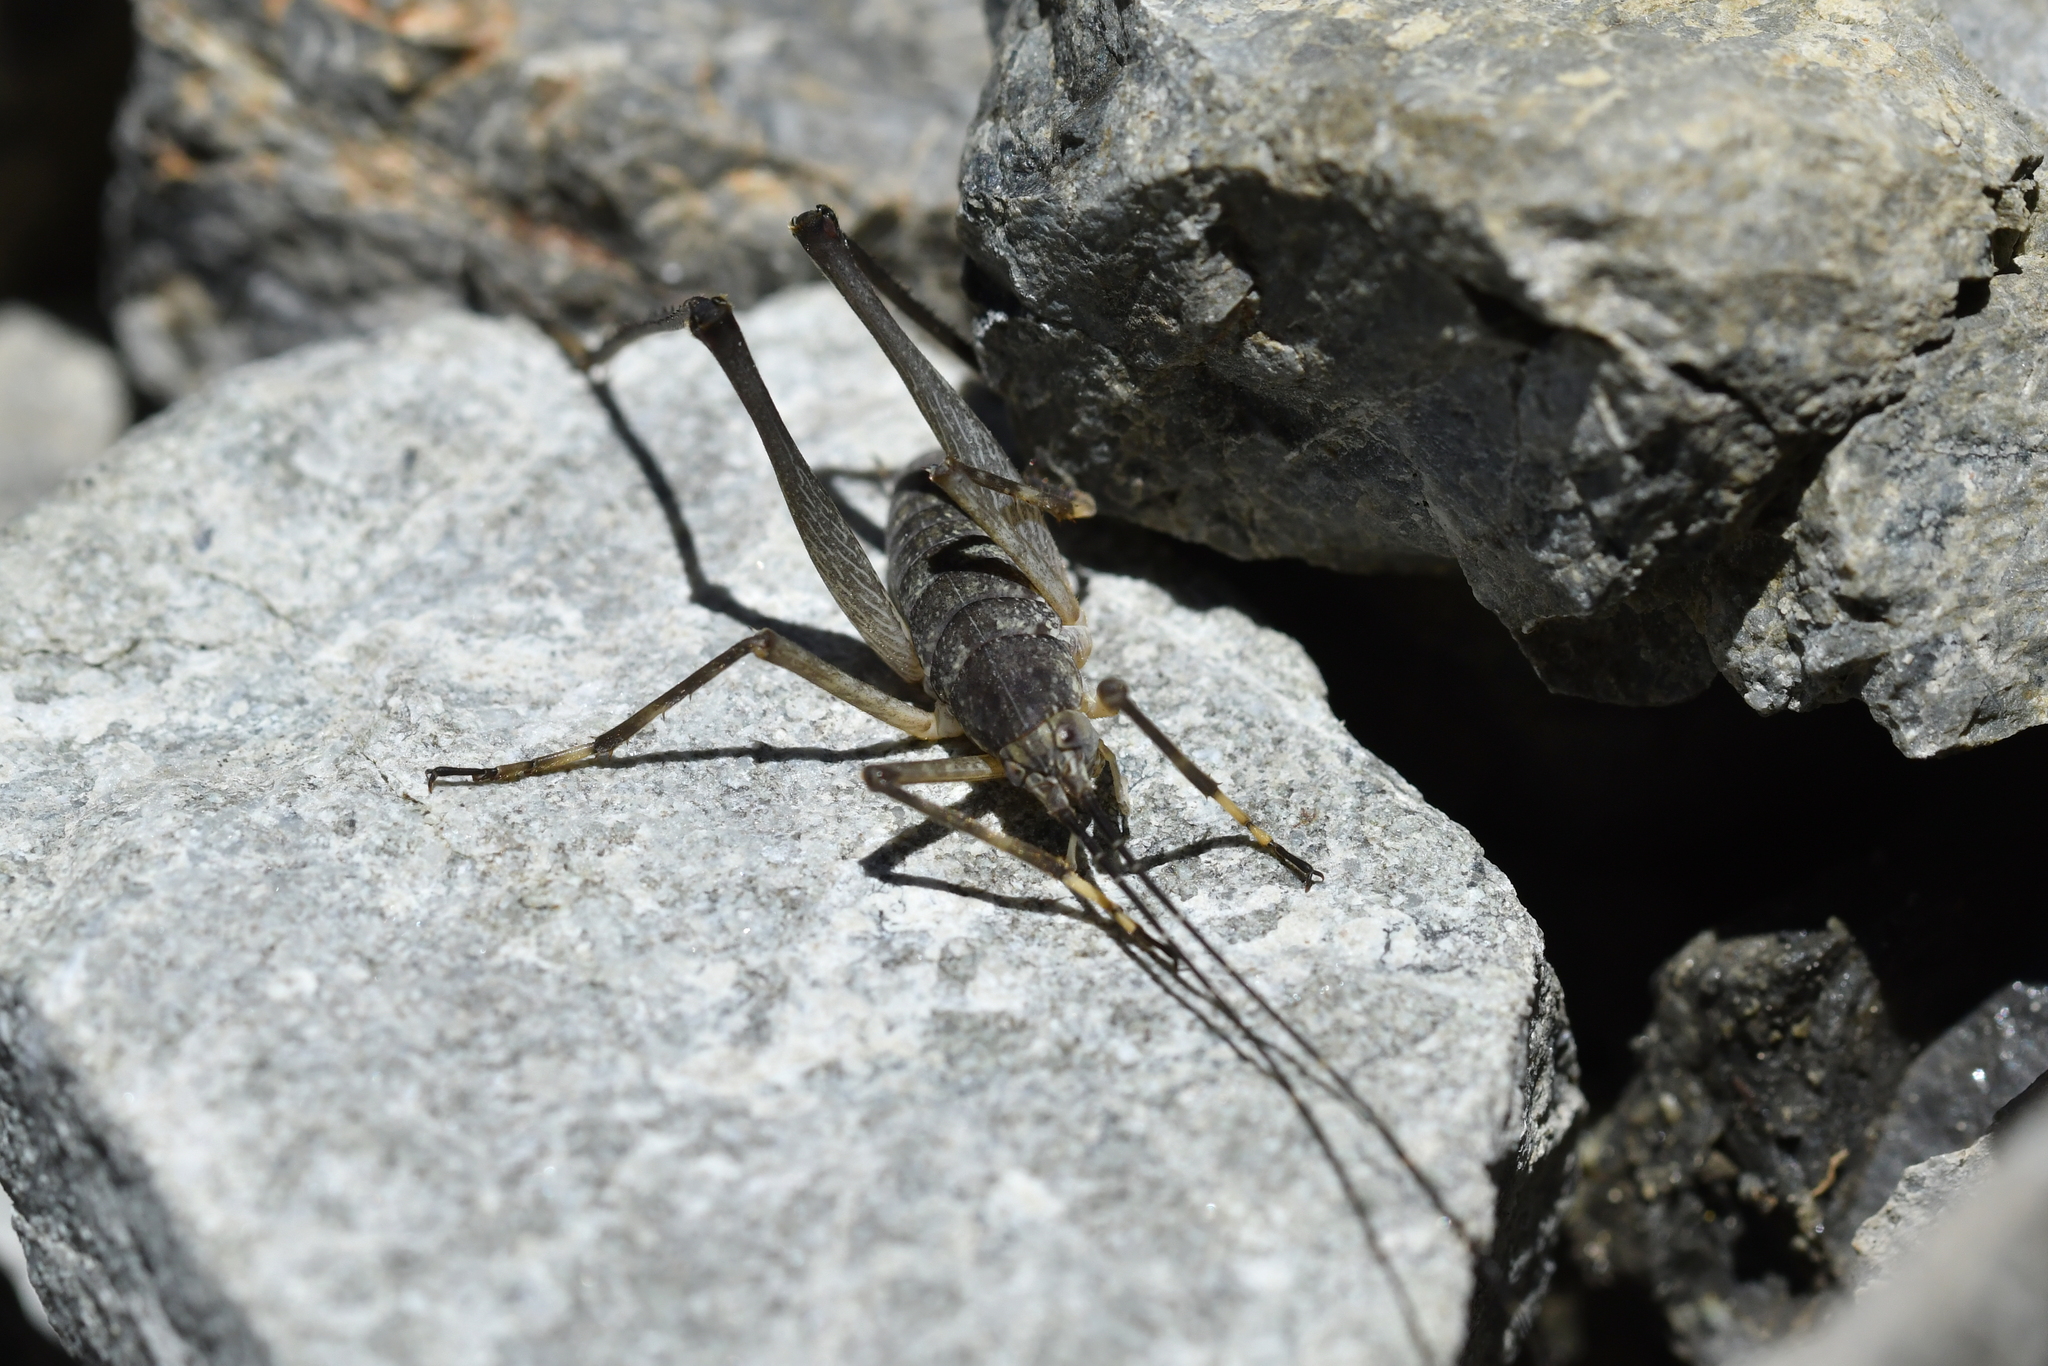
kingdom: Animalia
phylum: Arthropoda
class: Insecta
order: Orthoptera
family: Rhaphidophoridae
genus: Petrotettix
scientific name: Petrotettix serratus
